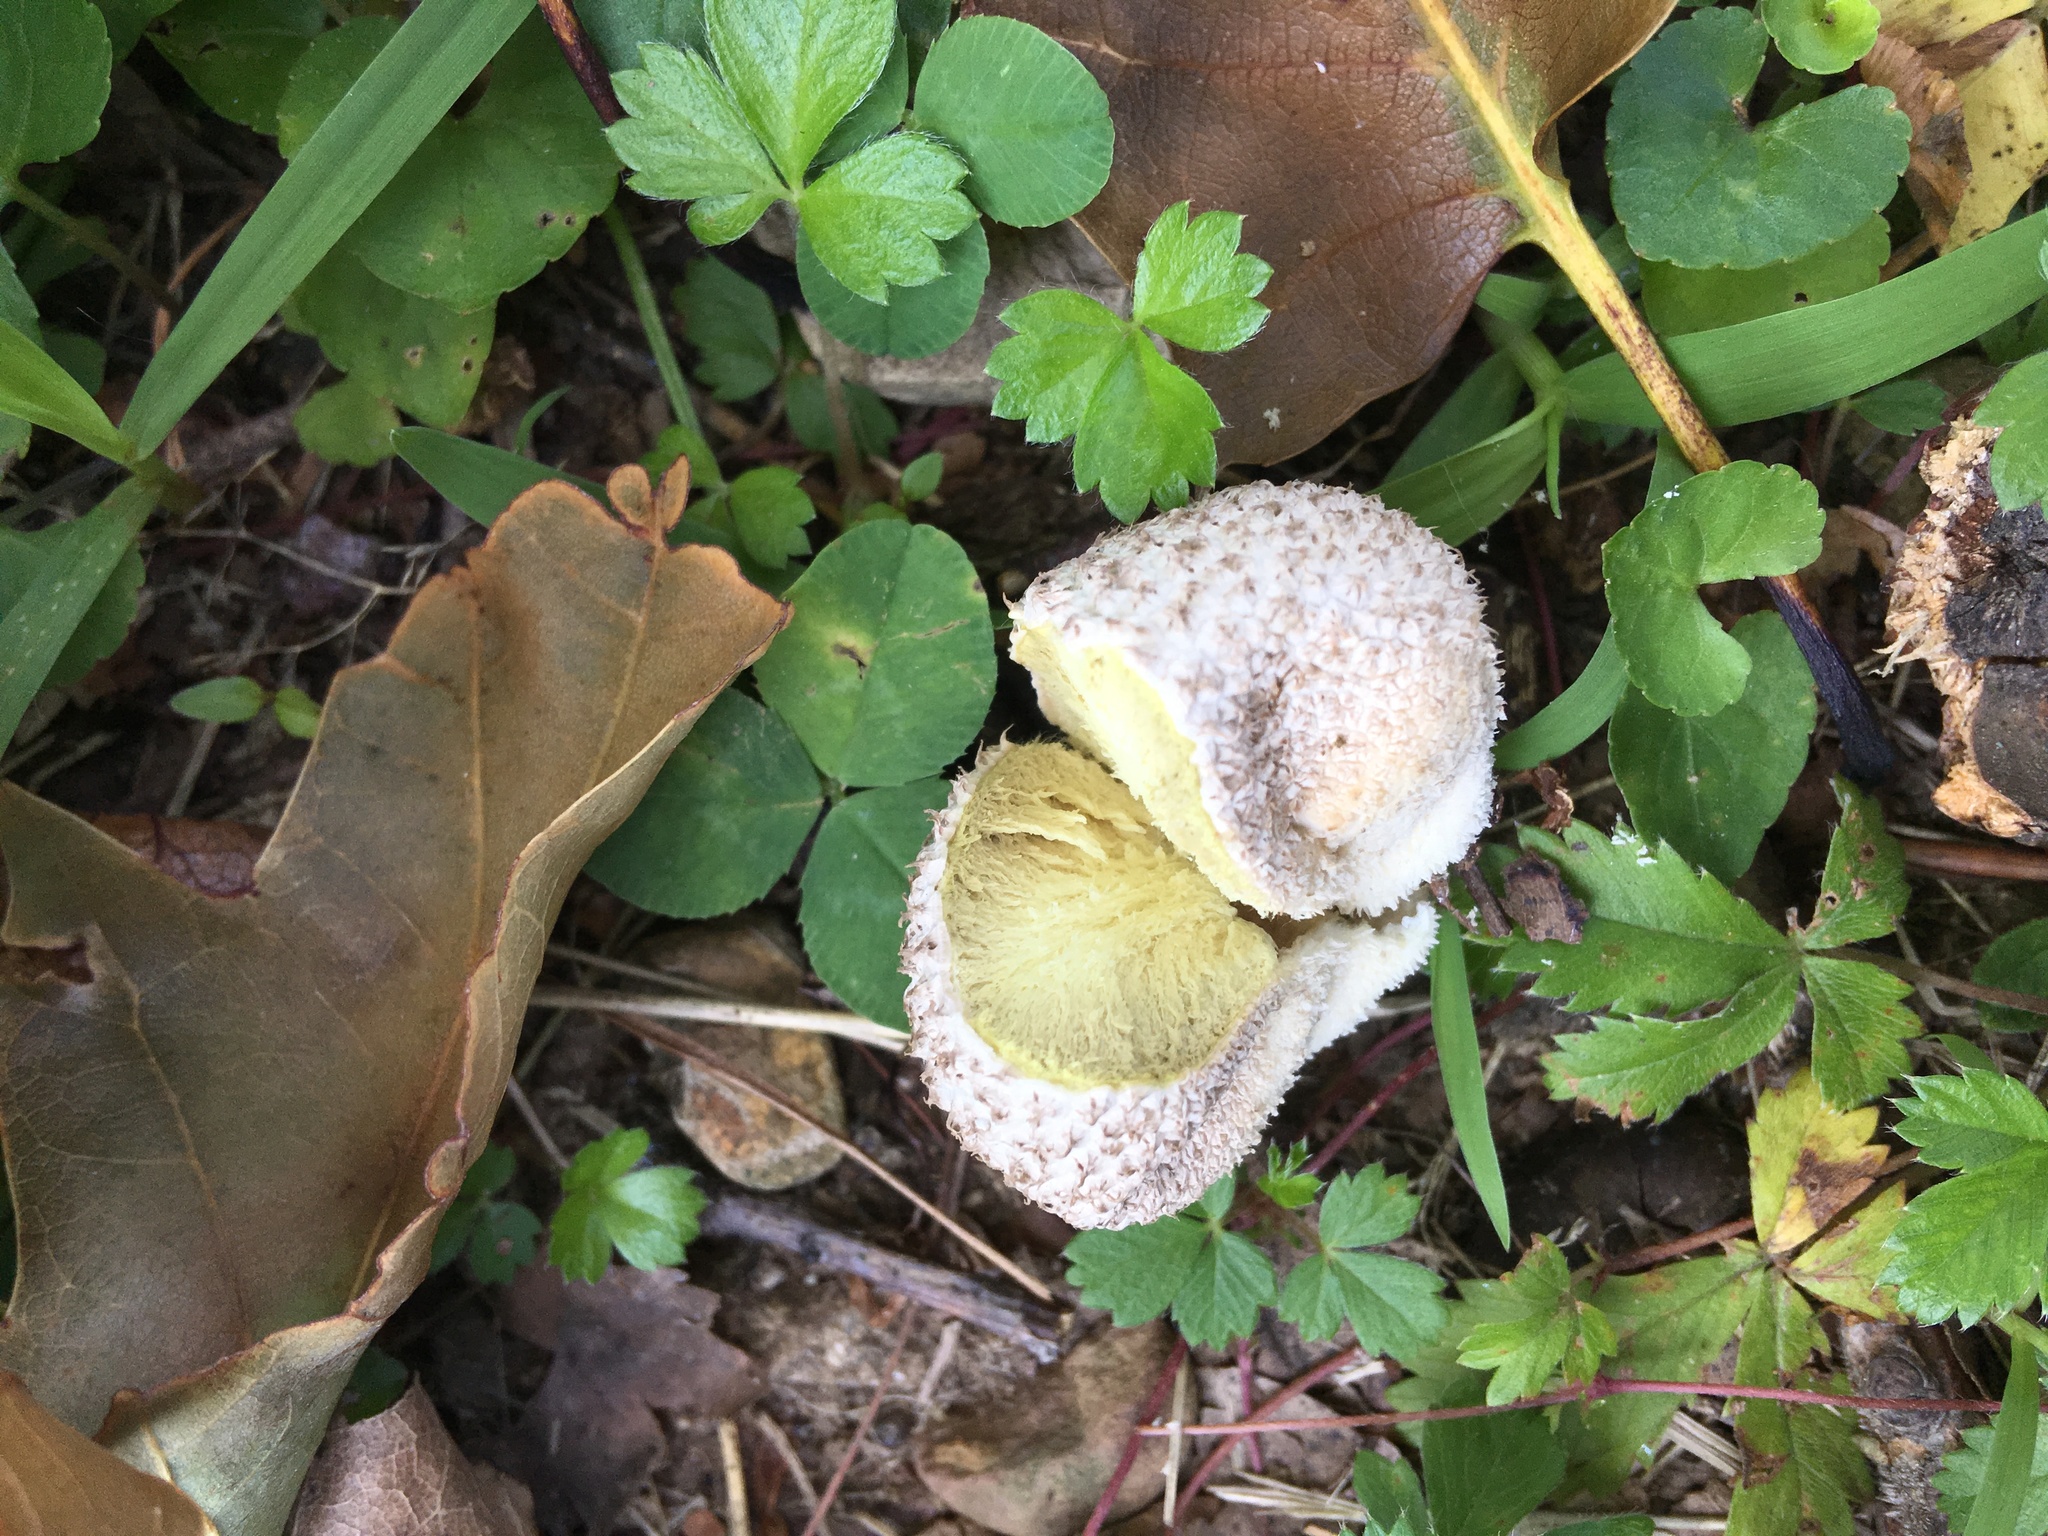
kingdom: Fungi
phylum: Basidiomycota
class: Agaricomycetes
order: Agaricales
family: Agaricaceae
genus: Lycoperdon
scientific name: Lycoperdon marginatum
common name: Peeling puffball
